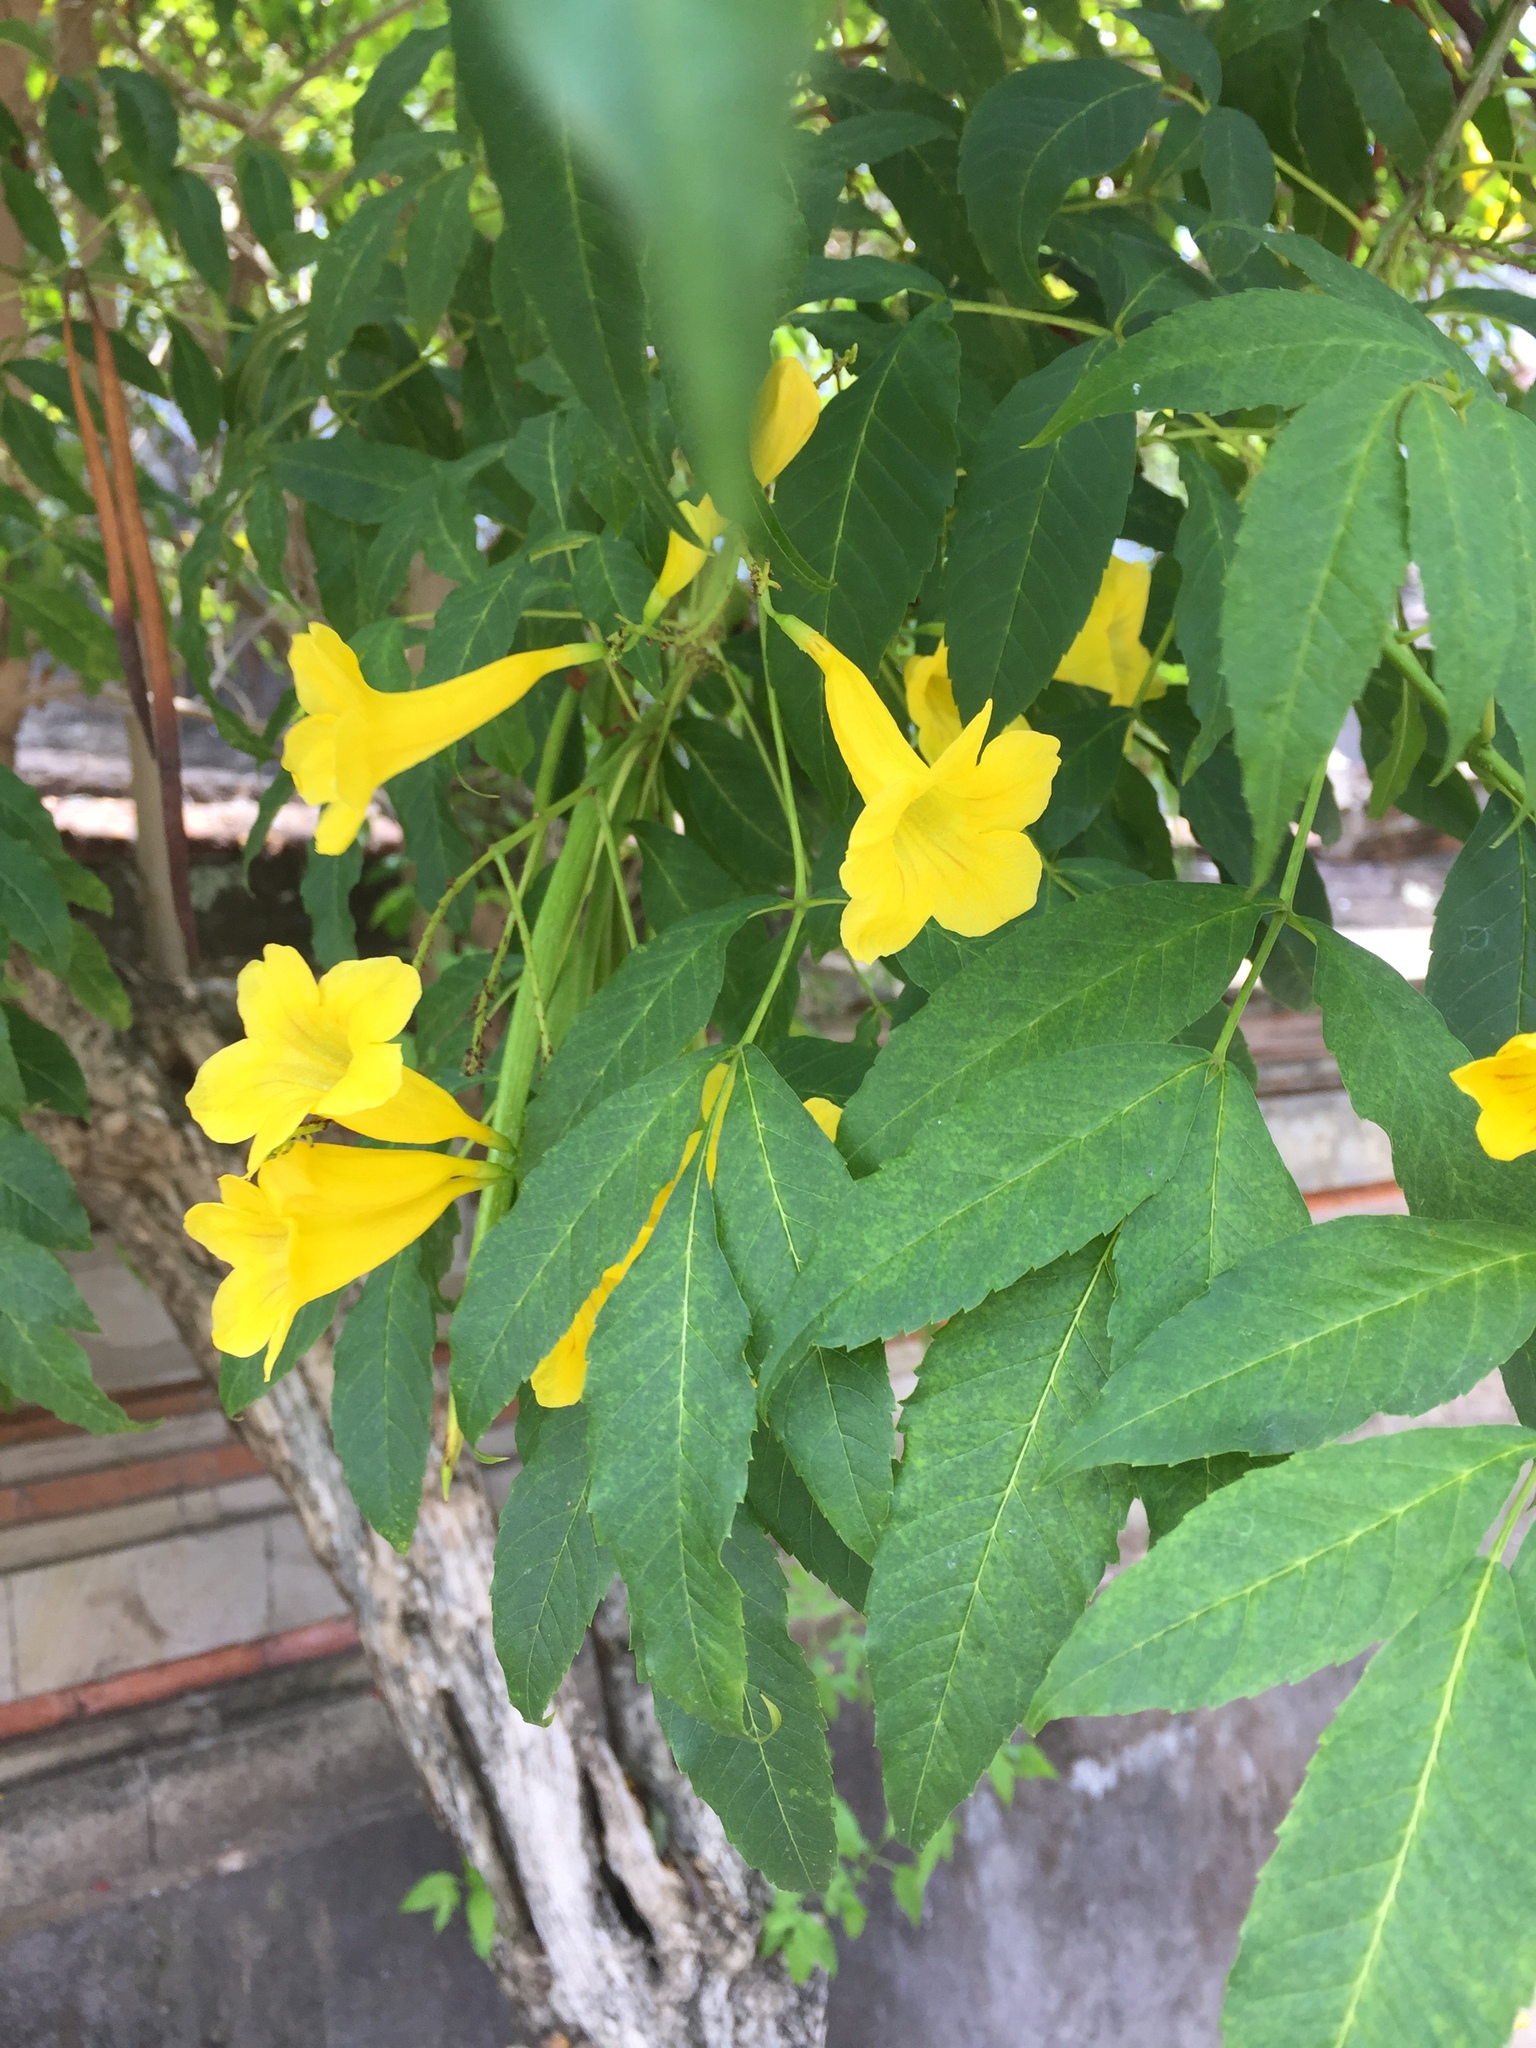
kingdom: Plantae
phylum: Tracheophyta
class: Magnoliopsida
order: Lamiales
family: Bignoniaceae
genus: Tecoma
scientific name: Tecoma stans
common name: Yellow trumpetbush
